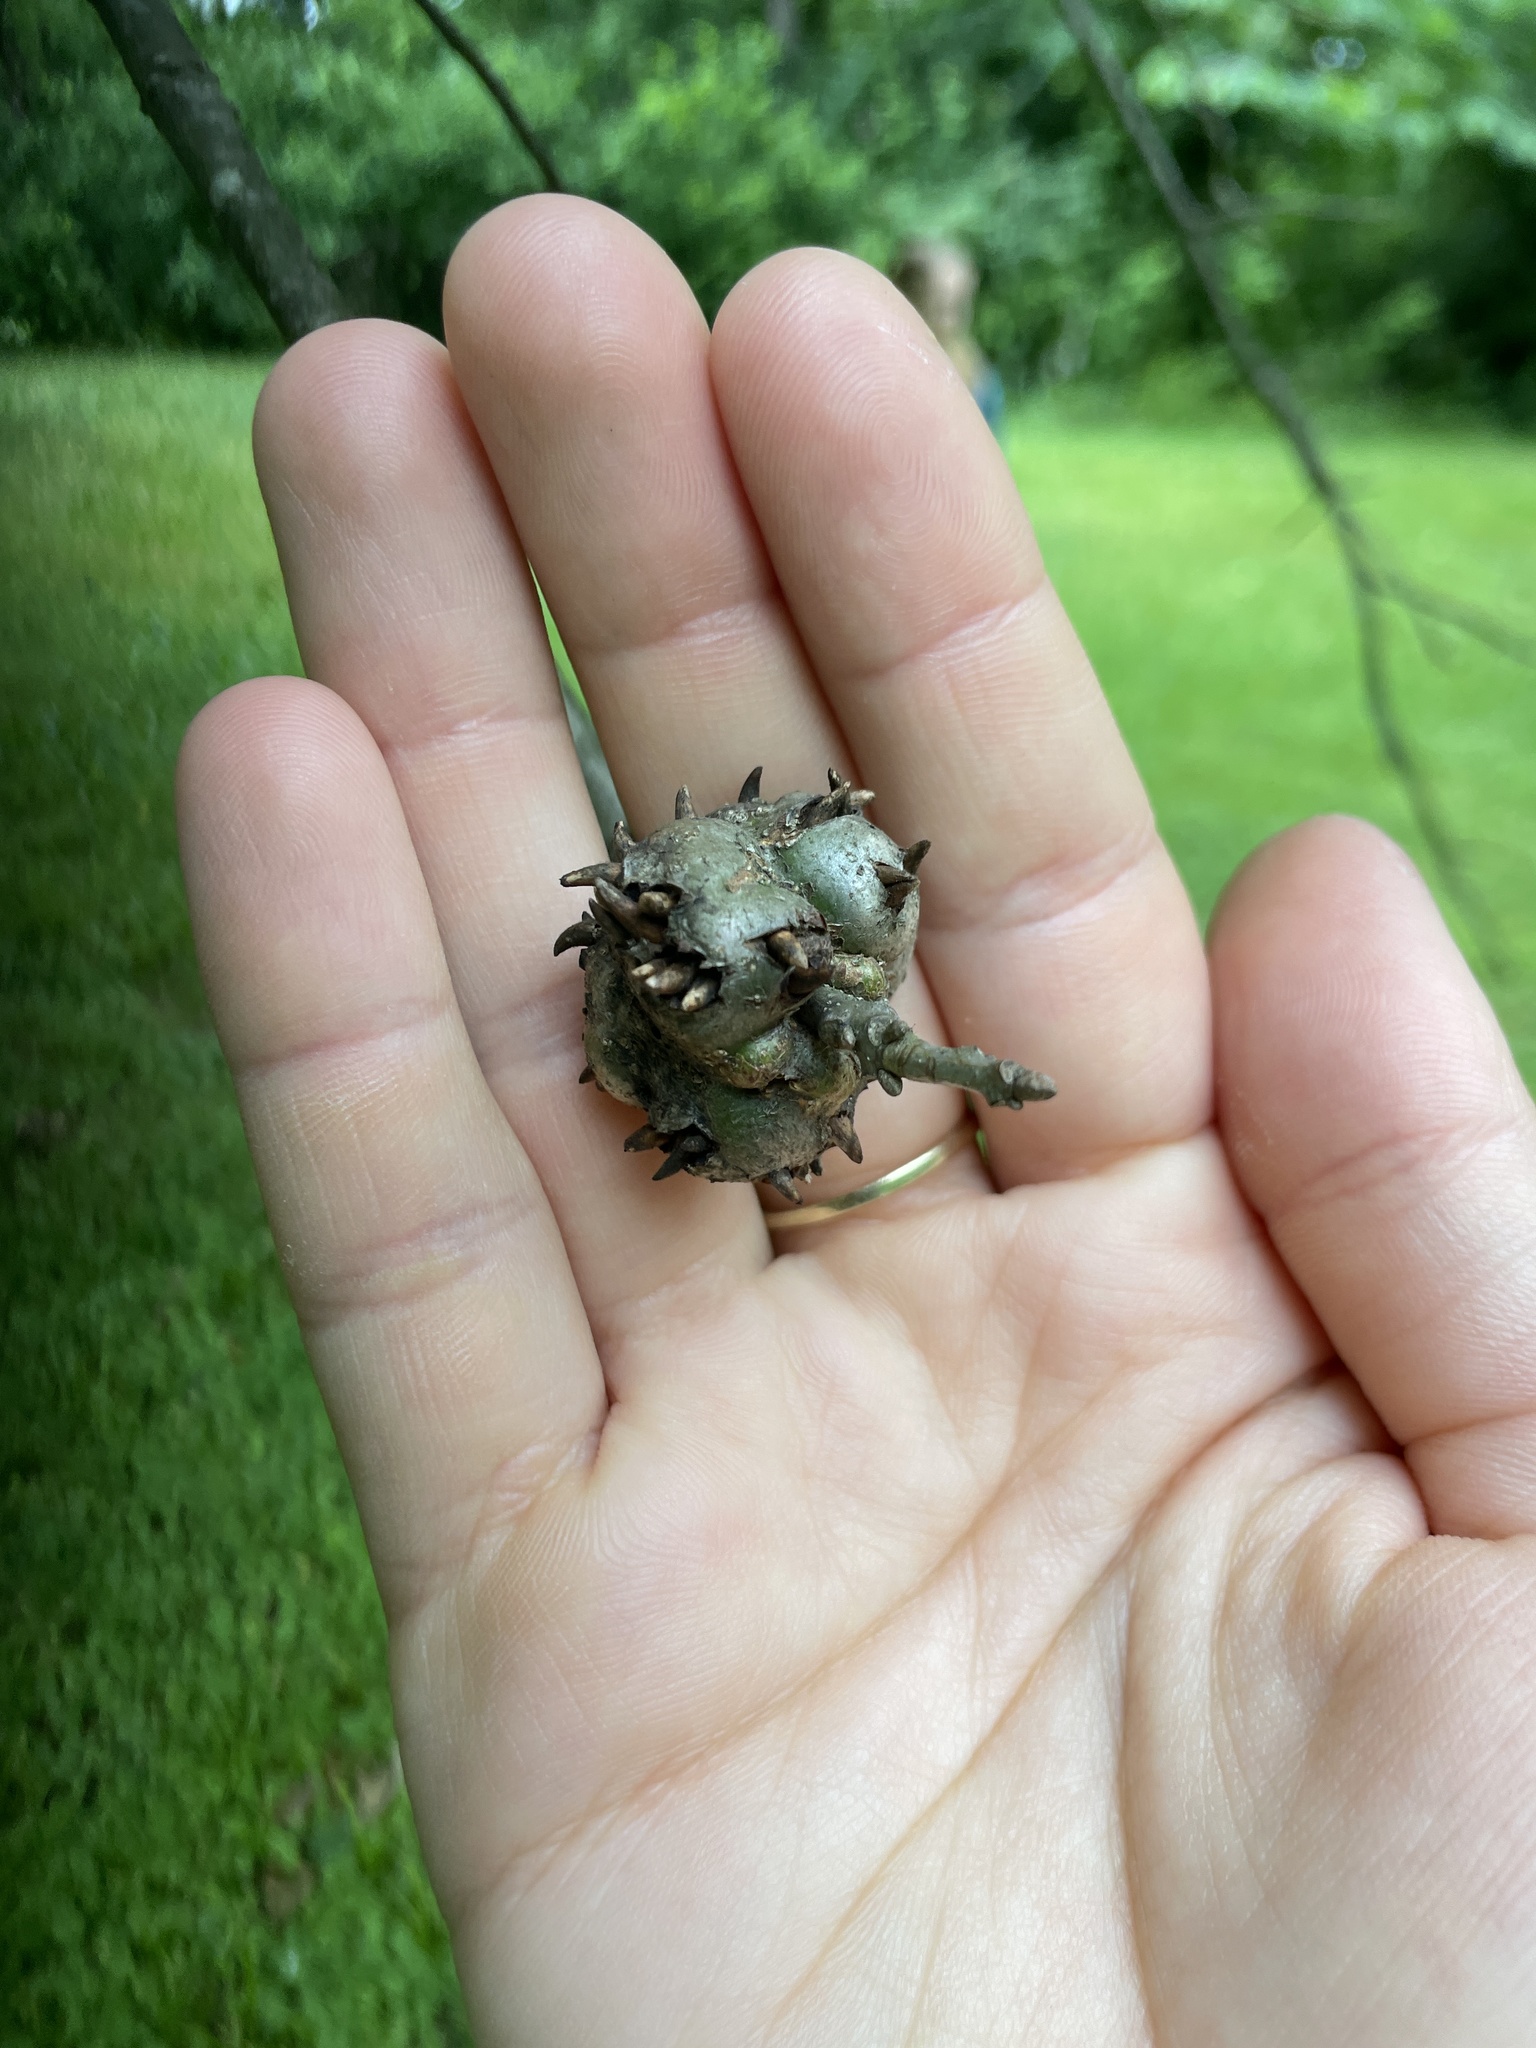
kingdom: Animalia
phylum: Arthropoda
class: Insecta
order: Hymenoptera
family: Cynipidae
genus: Callirhytis
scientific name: Callirhytis
